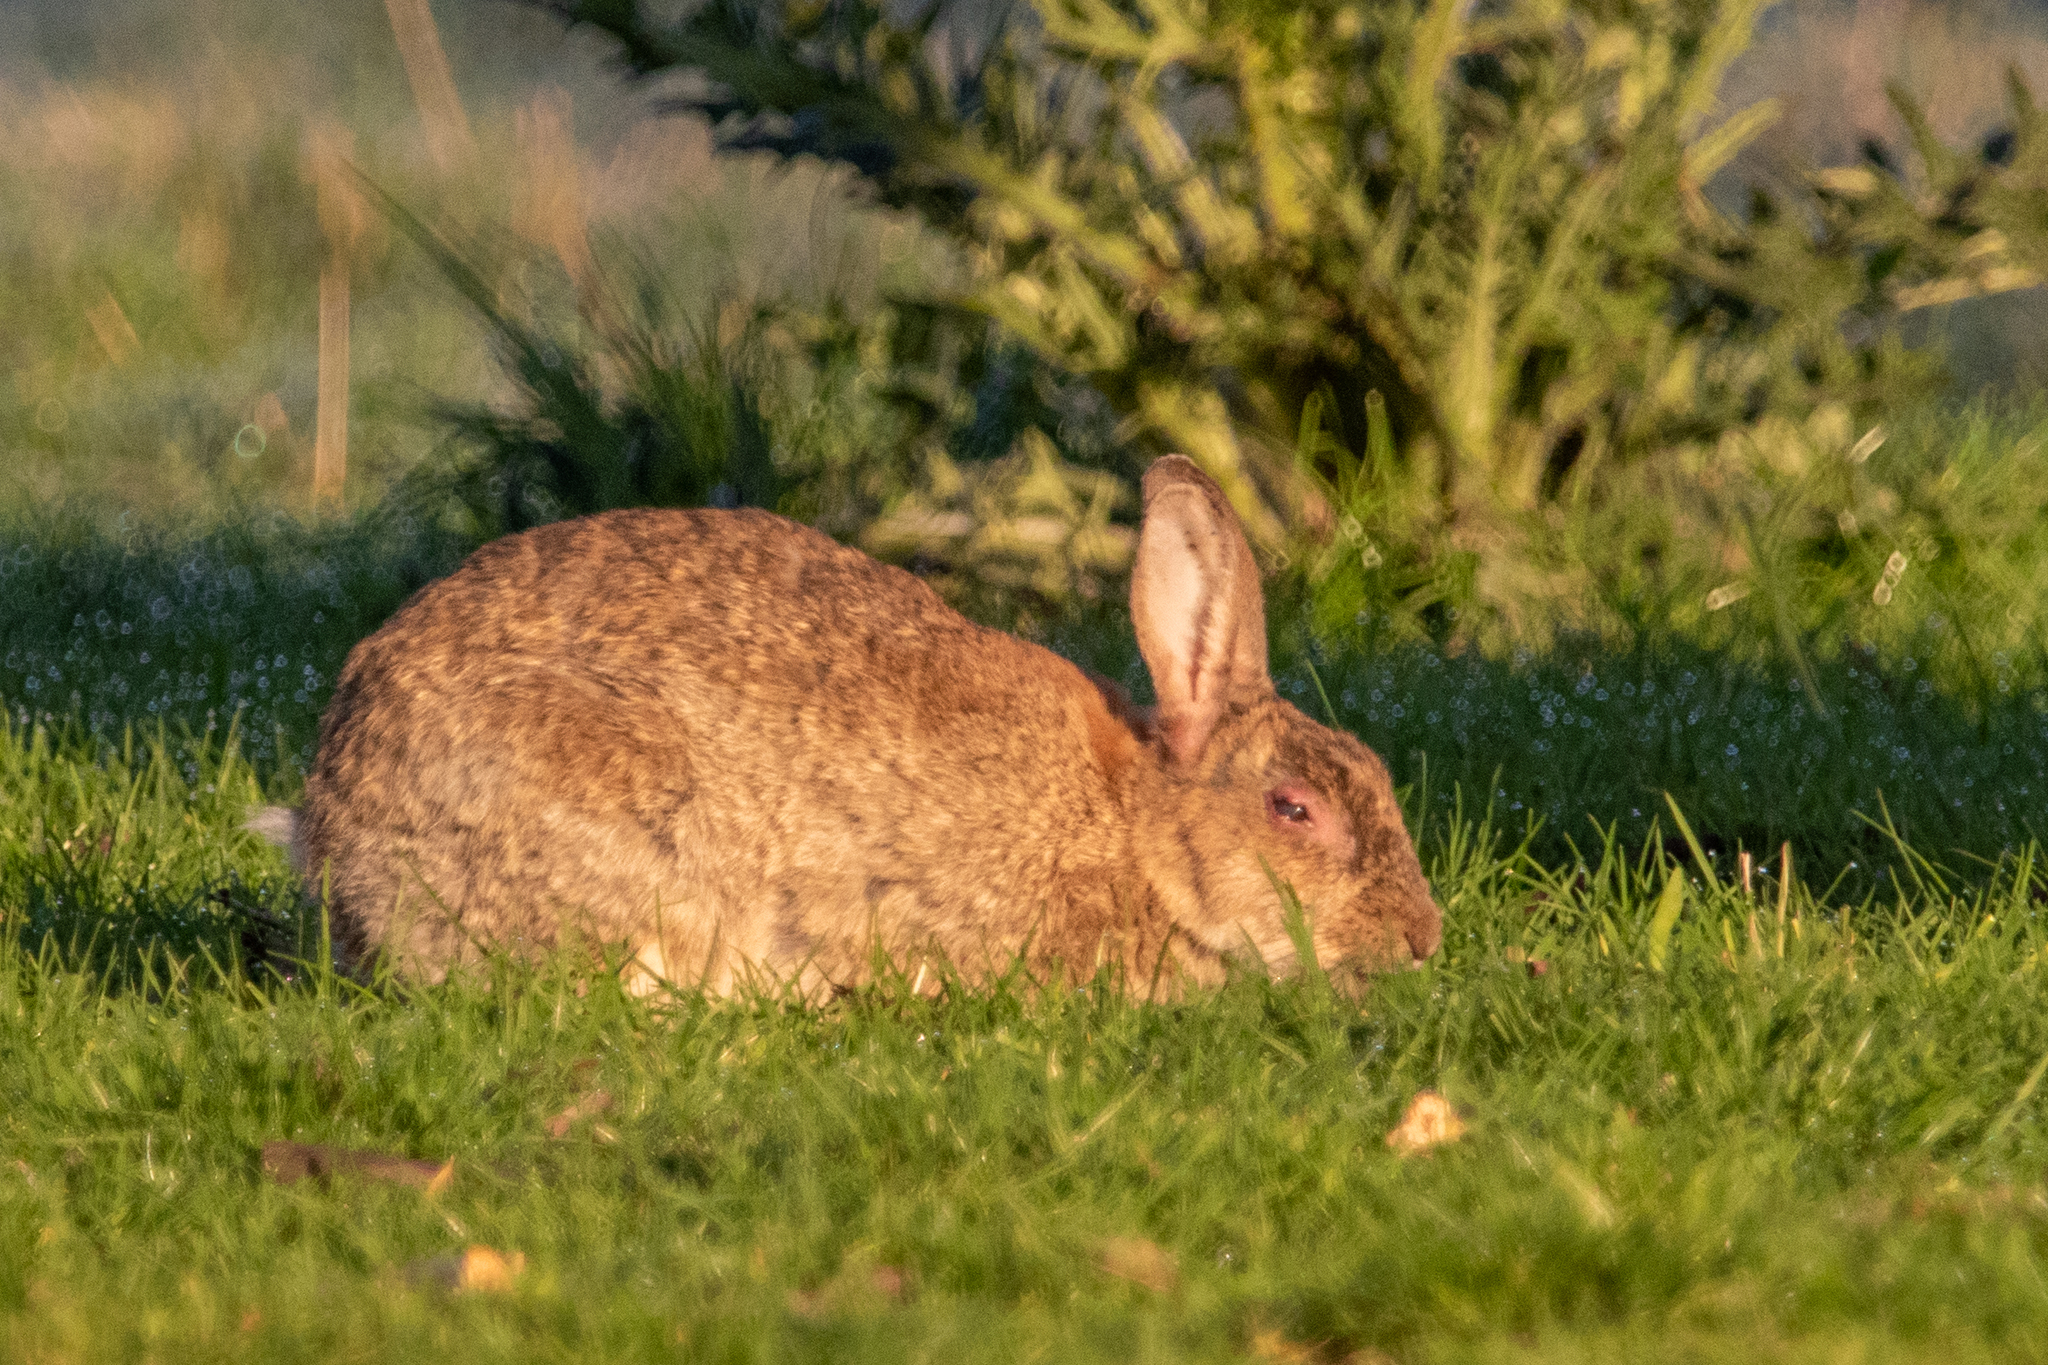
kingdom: Viruses
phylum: Nucleocytoviricota
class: Pokkesviricetes
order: Chitovirales
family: Poxviridae
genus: Leporipoxvirus
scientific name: Leporipoxvirus Myxoma virus
